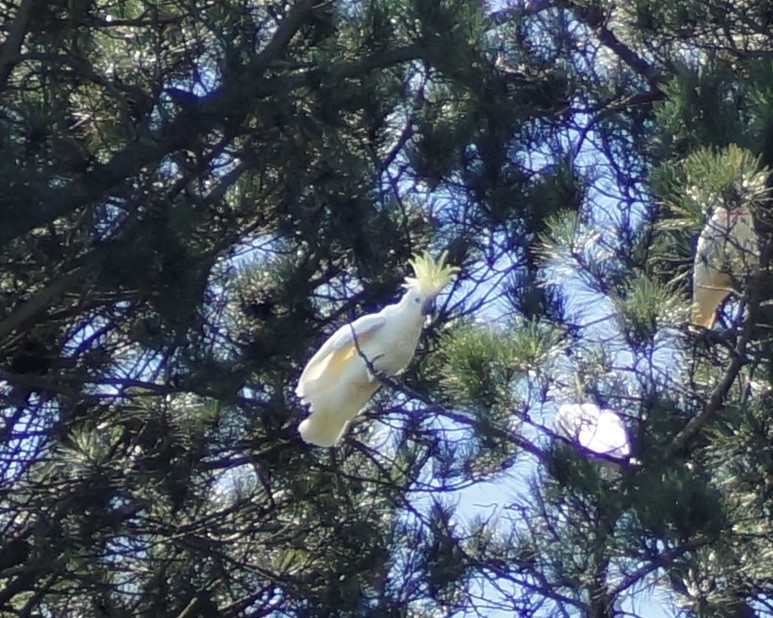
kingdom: Animalia
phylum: Chordata
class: Aves
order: Psittaciformes
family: Psittacidae
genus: Cacatua
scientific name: Cacatua galerita
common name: Sulphur-crested cockatoo
